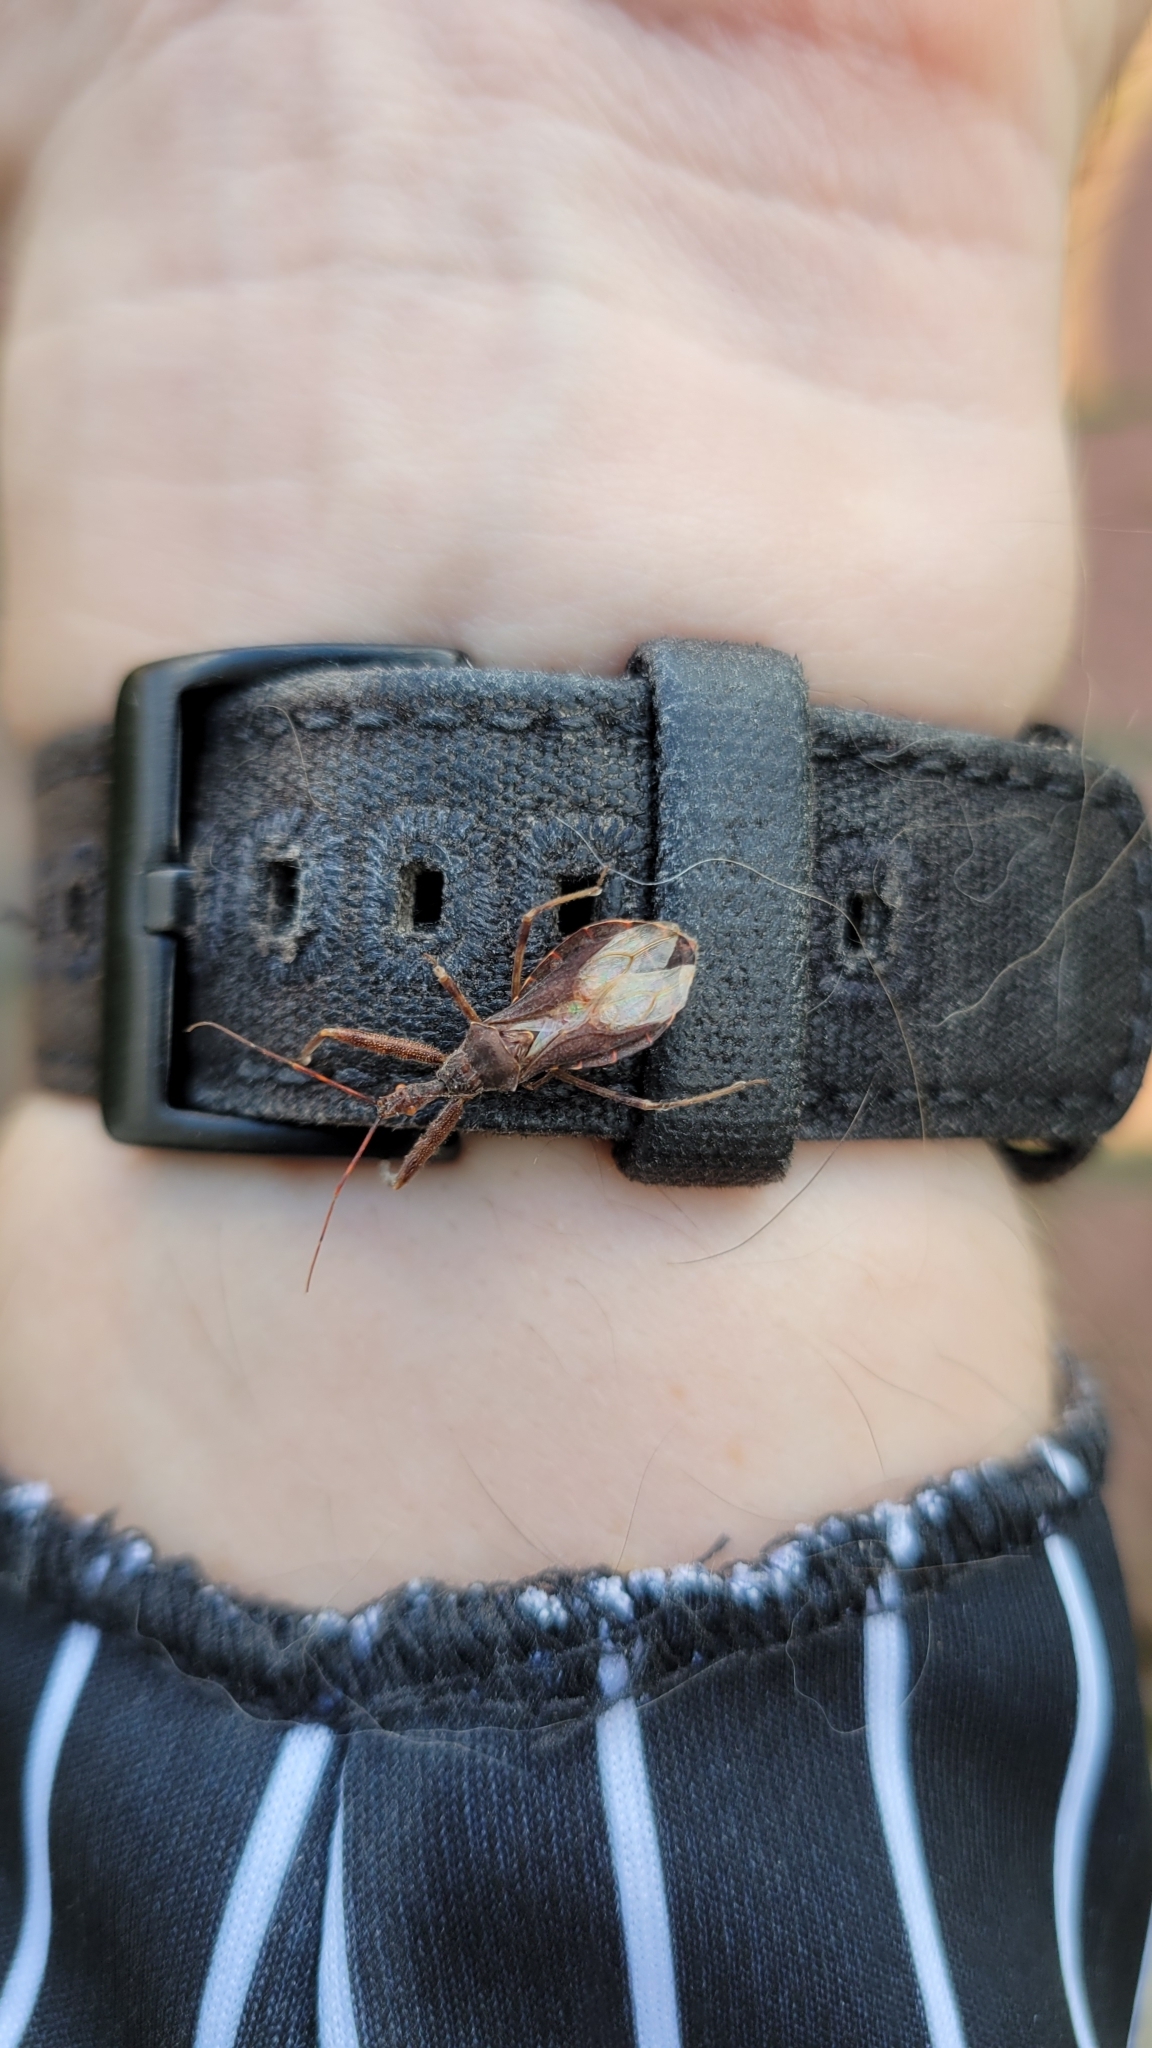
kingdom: Animalia
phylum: Arthropoda
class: Insecta
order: Hemiptera
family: Reduviidae
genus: Acholla
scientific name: Acholla multispinosa
